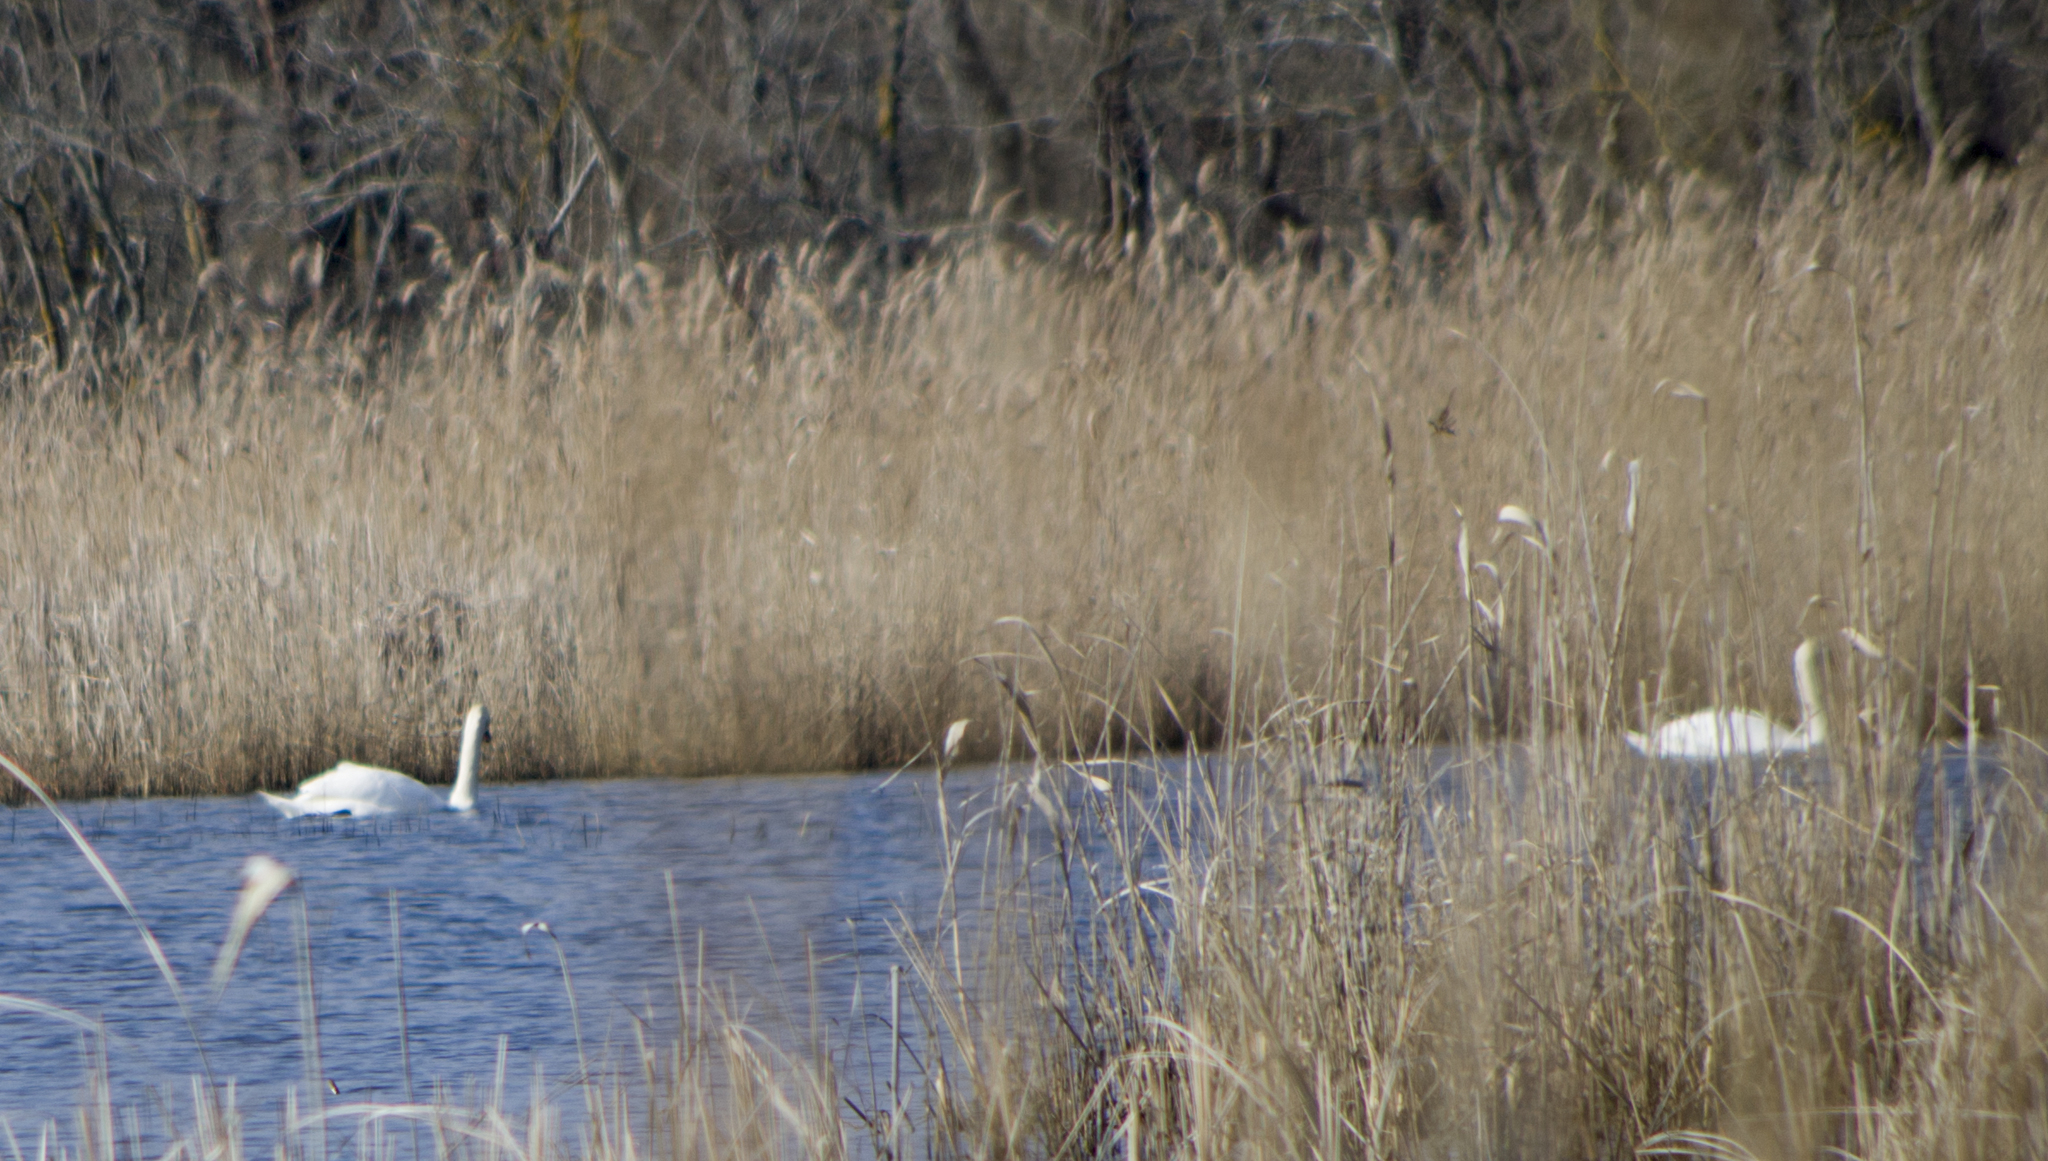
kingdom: Animalia
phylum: Chordata
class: Aves
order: Anseriformes
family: Anatidae
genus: Cygnus
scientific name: Cygnus olor
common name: Mute swan
